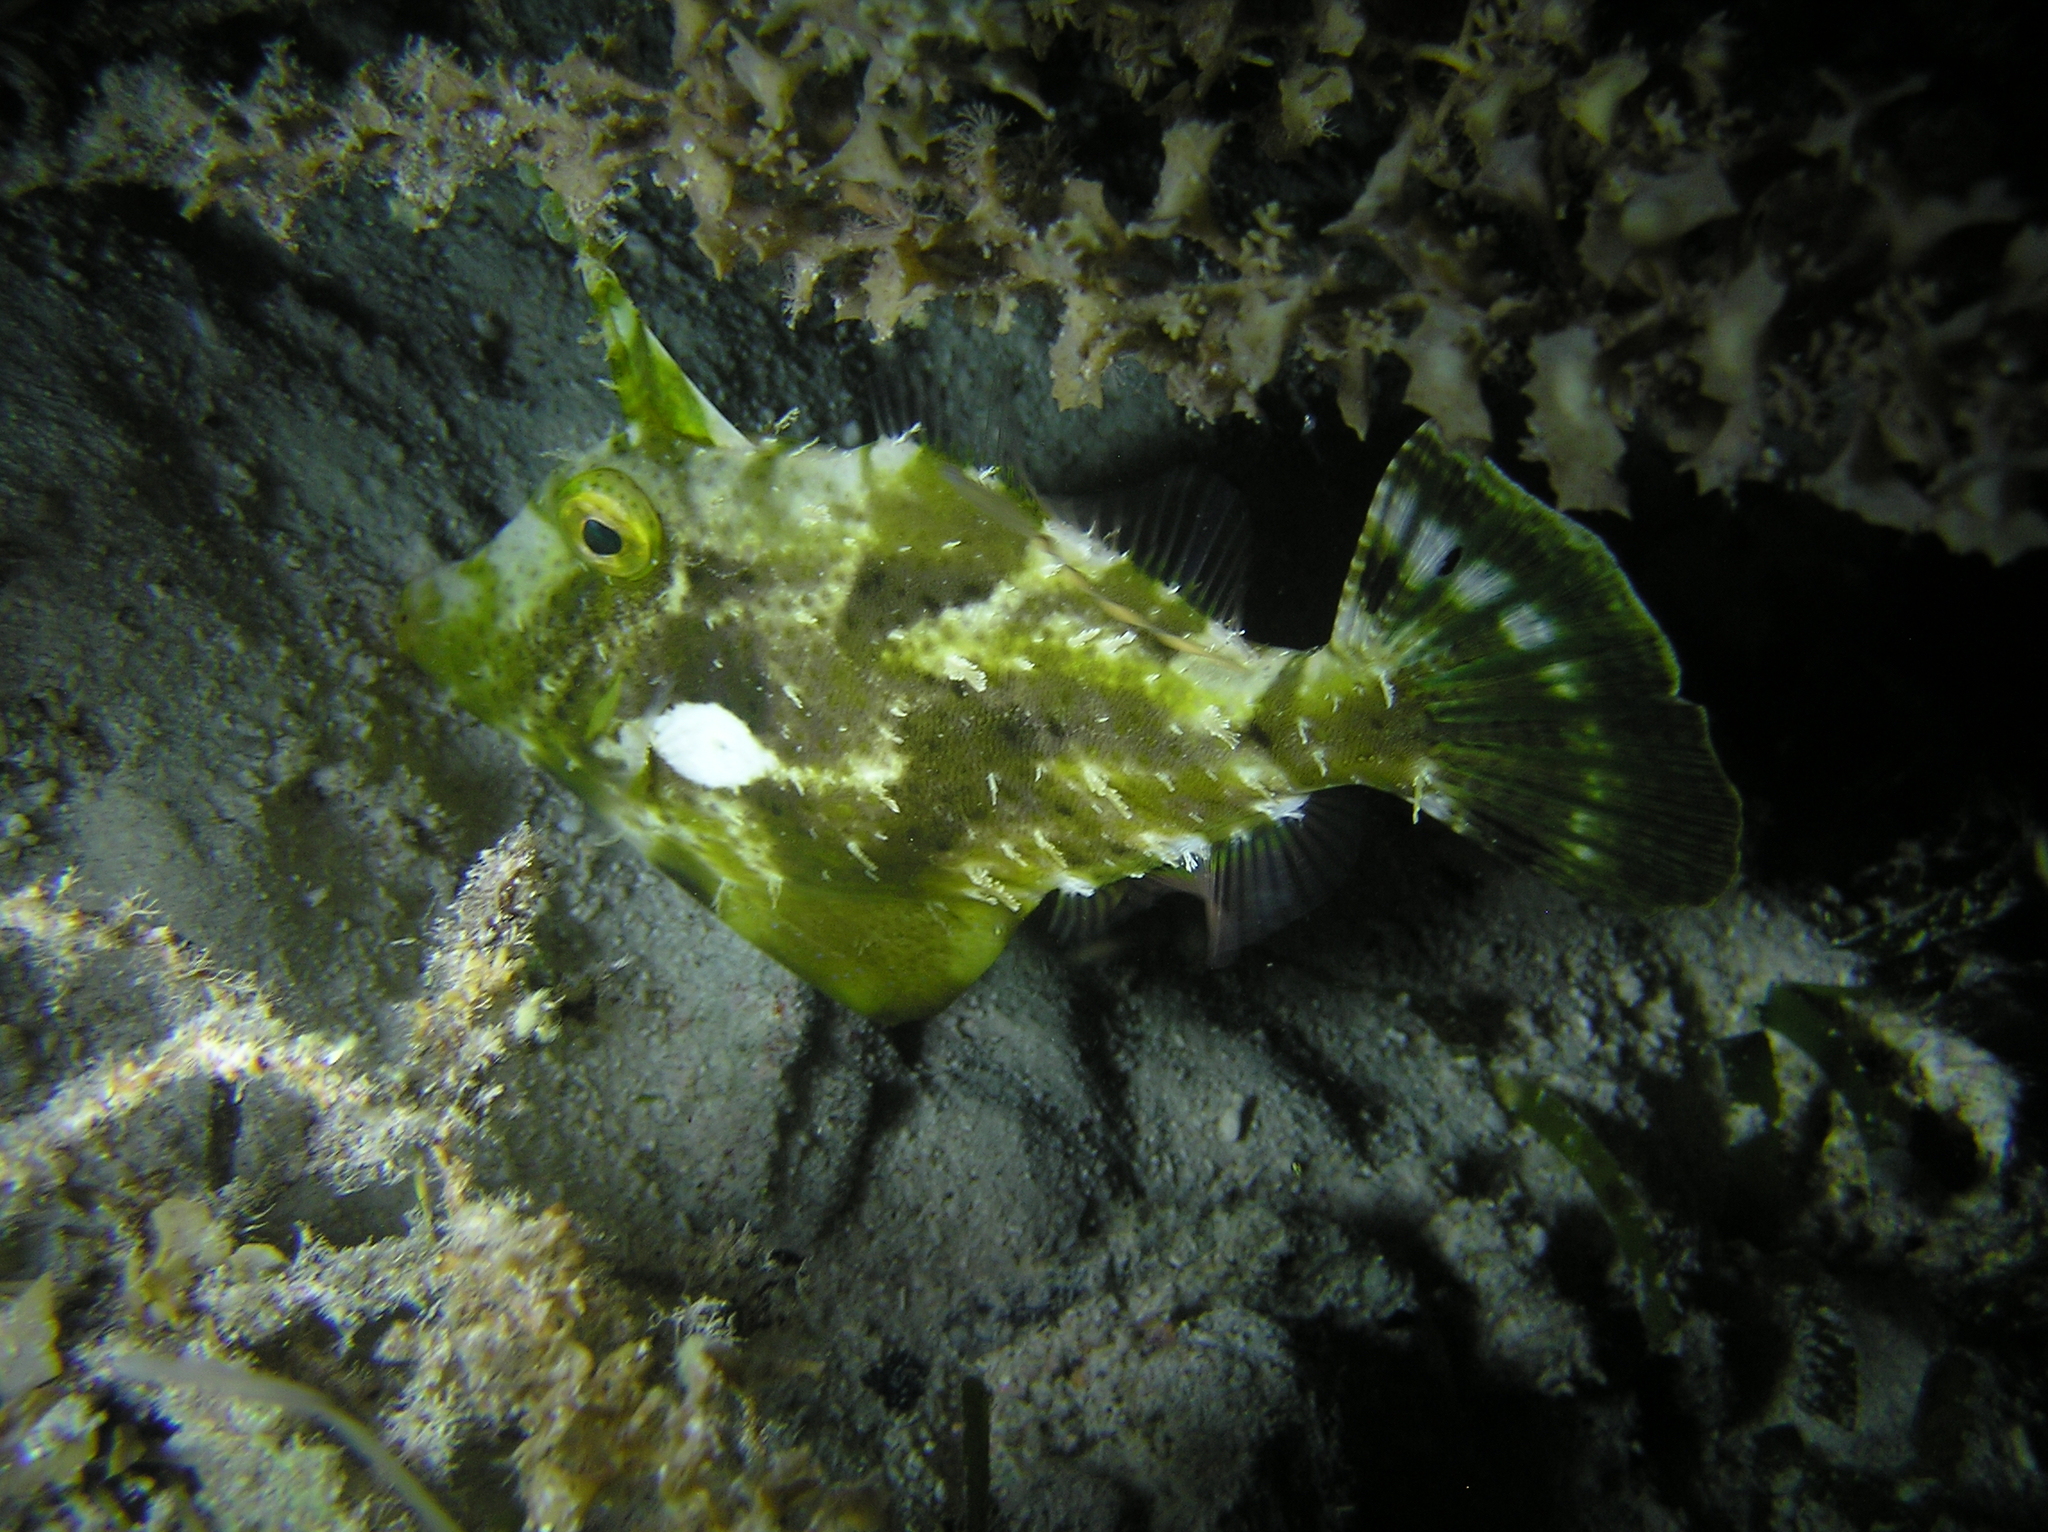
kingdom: Animalia
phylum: Chordata
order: Tetraodontiformes
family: Monacanthidae
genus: Pseudomonacanthus
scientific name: Pseudomonacanthus macrurus
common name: Blotchy filefish
